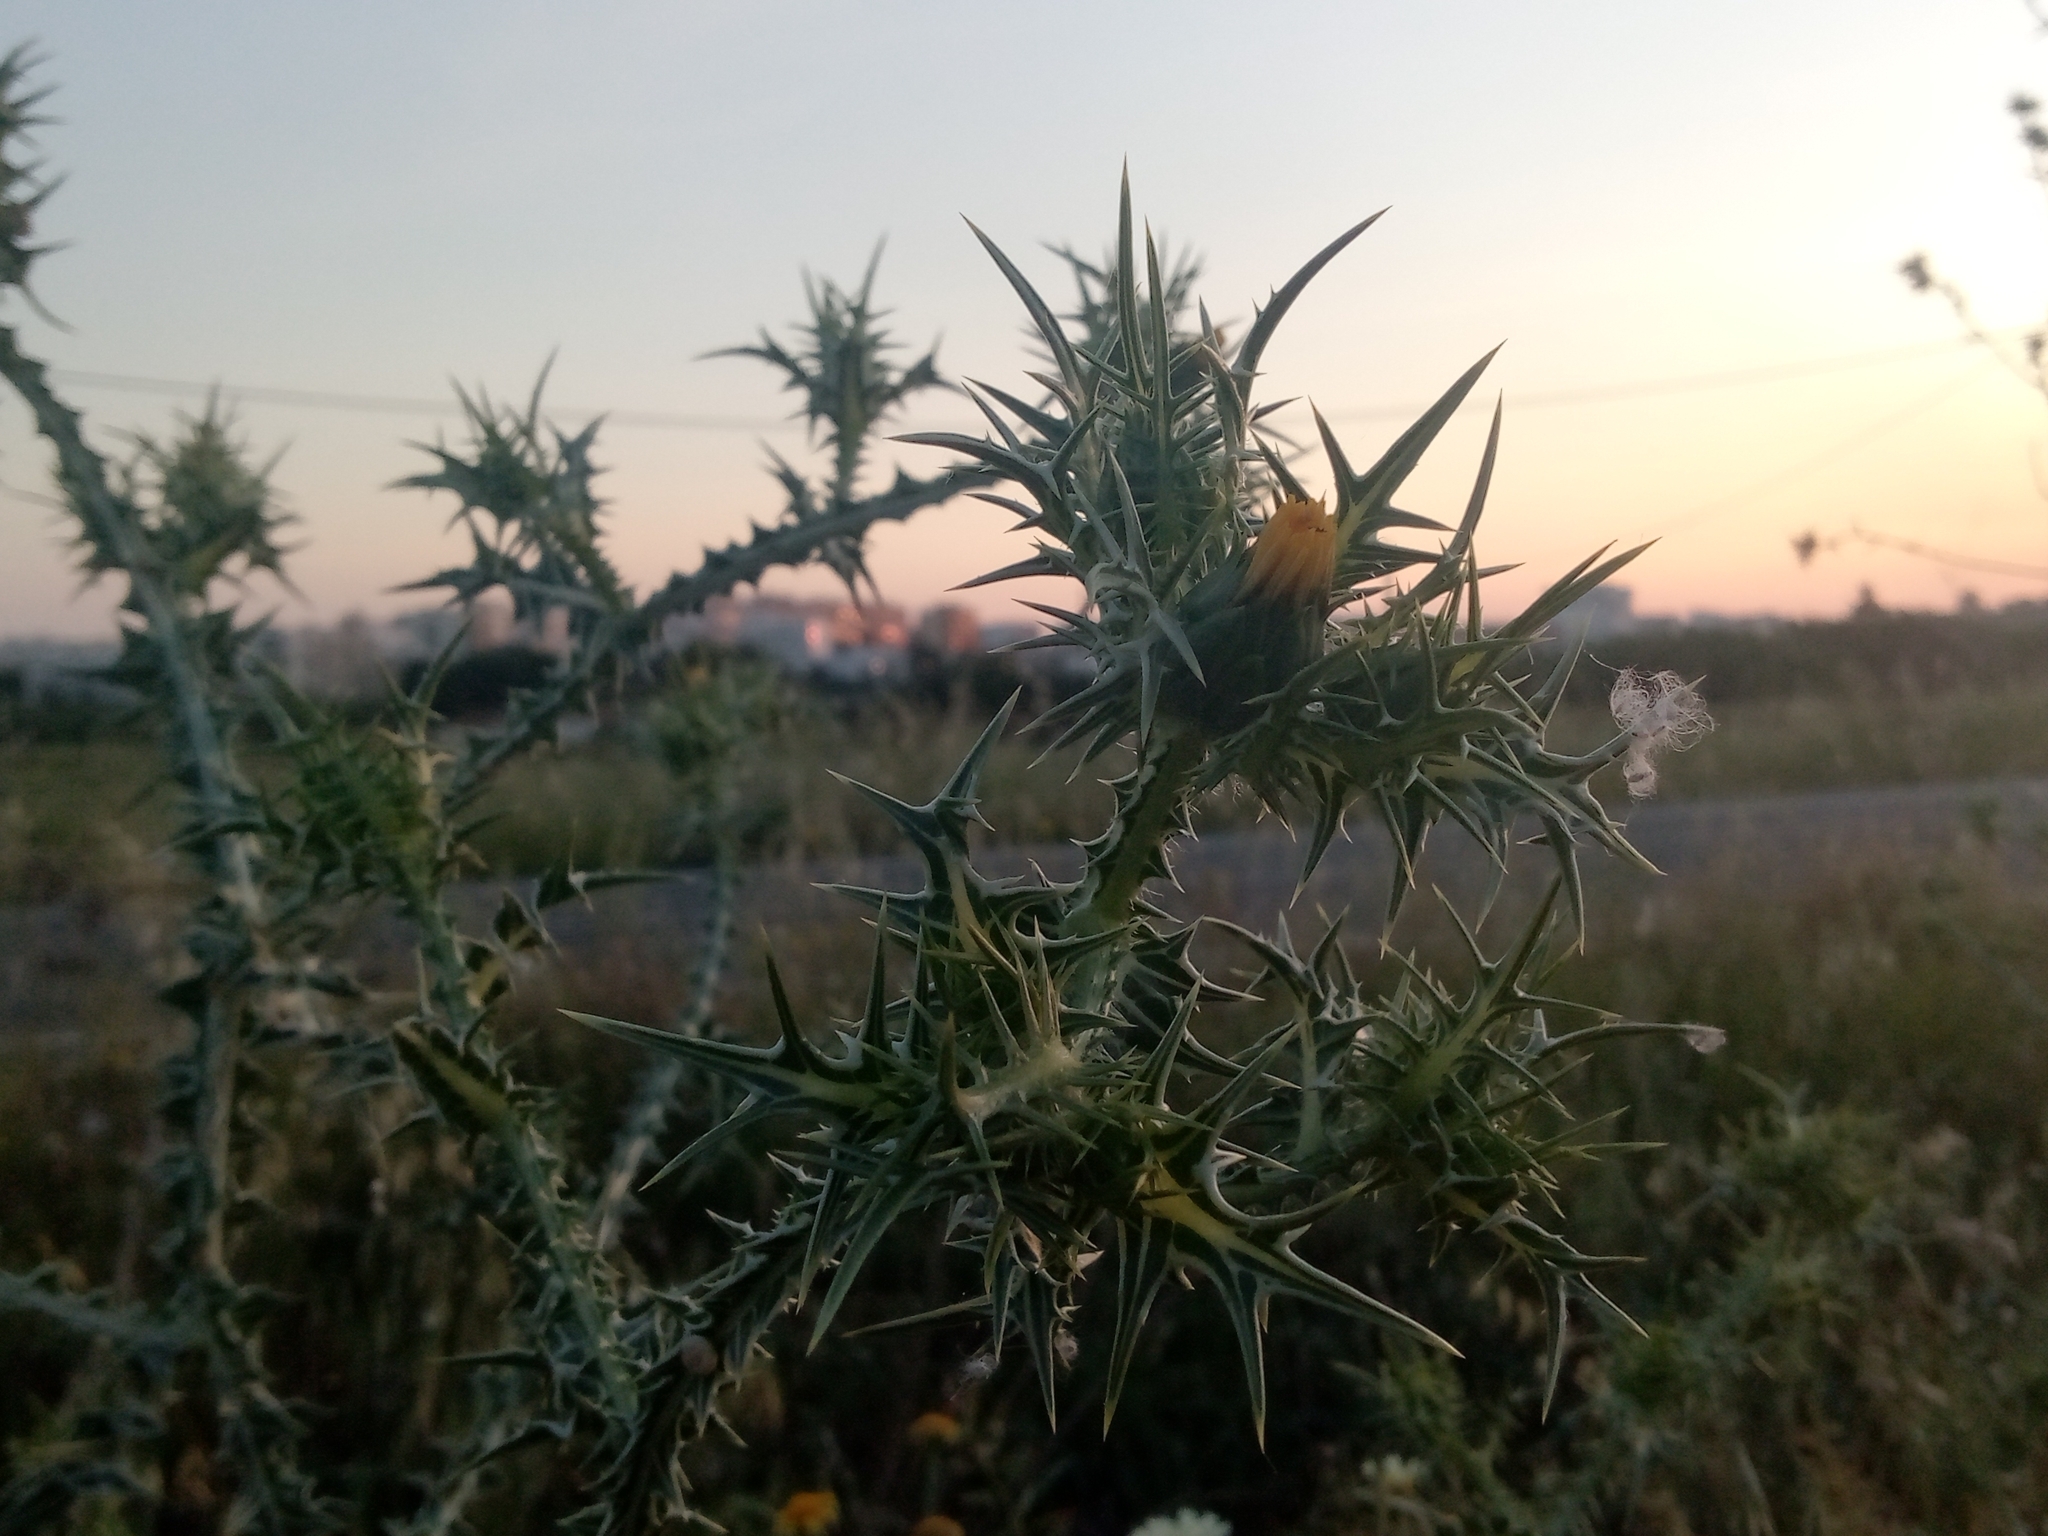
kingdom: Plantae
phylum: Tracheophyta
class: Magnoliopsida
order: Asterales
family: Asteraceae
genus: Scolymus
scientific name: Scolymus maculatus
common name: Spotted thistle
